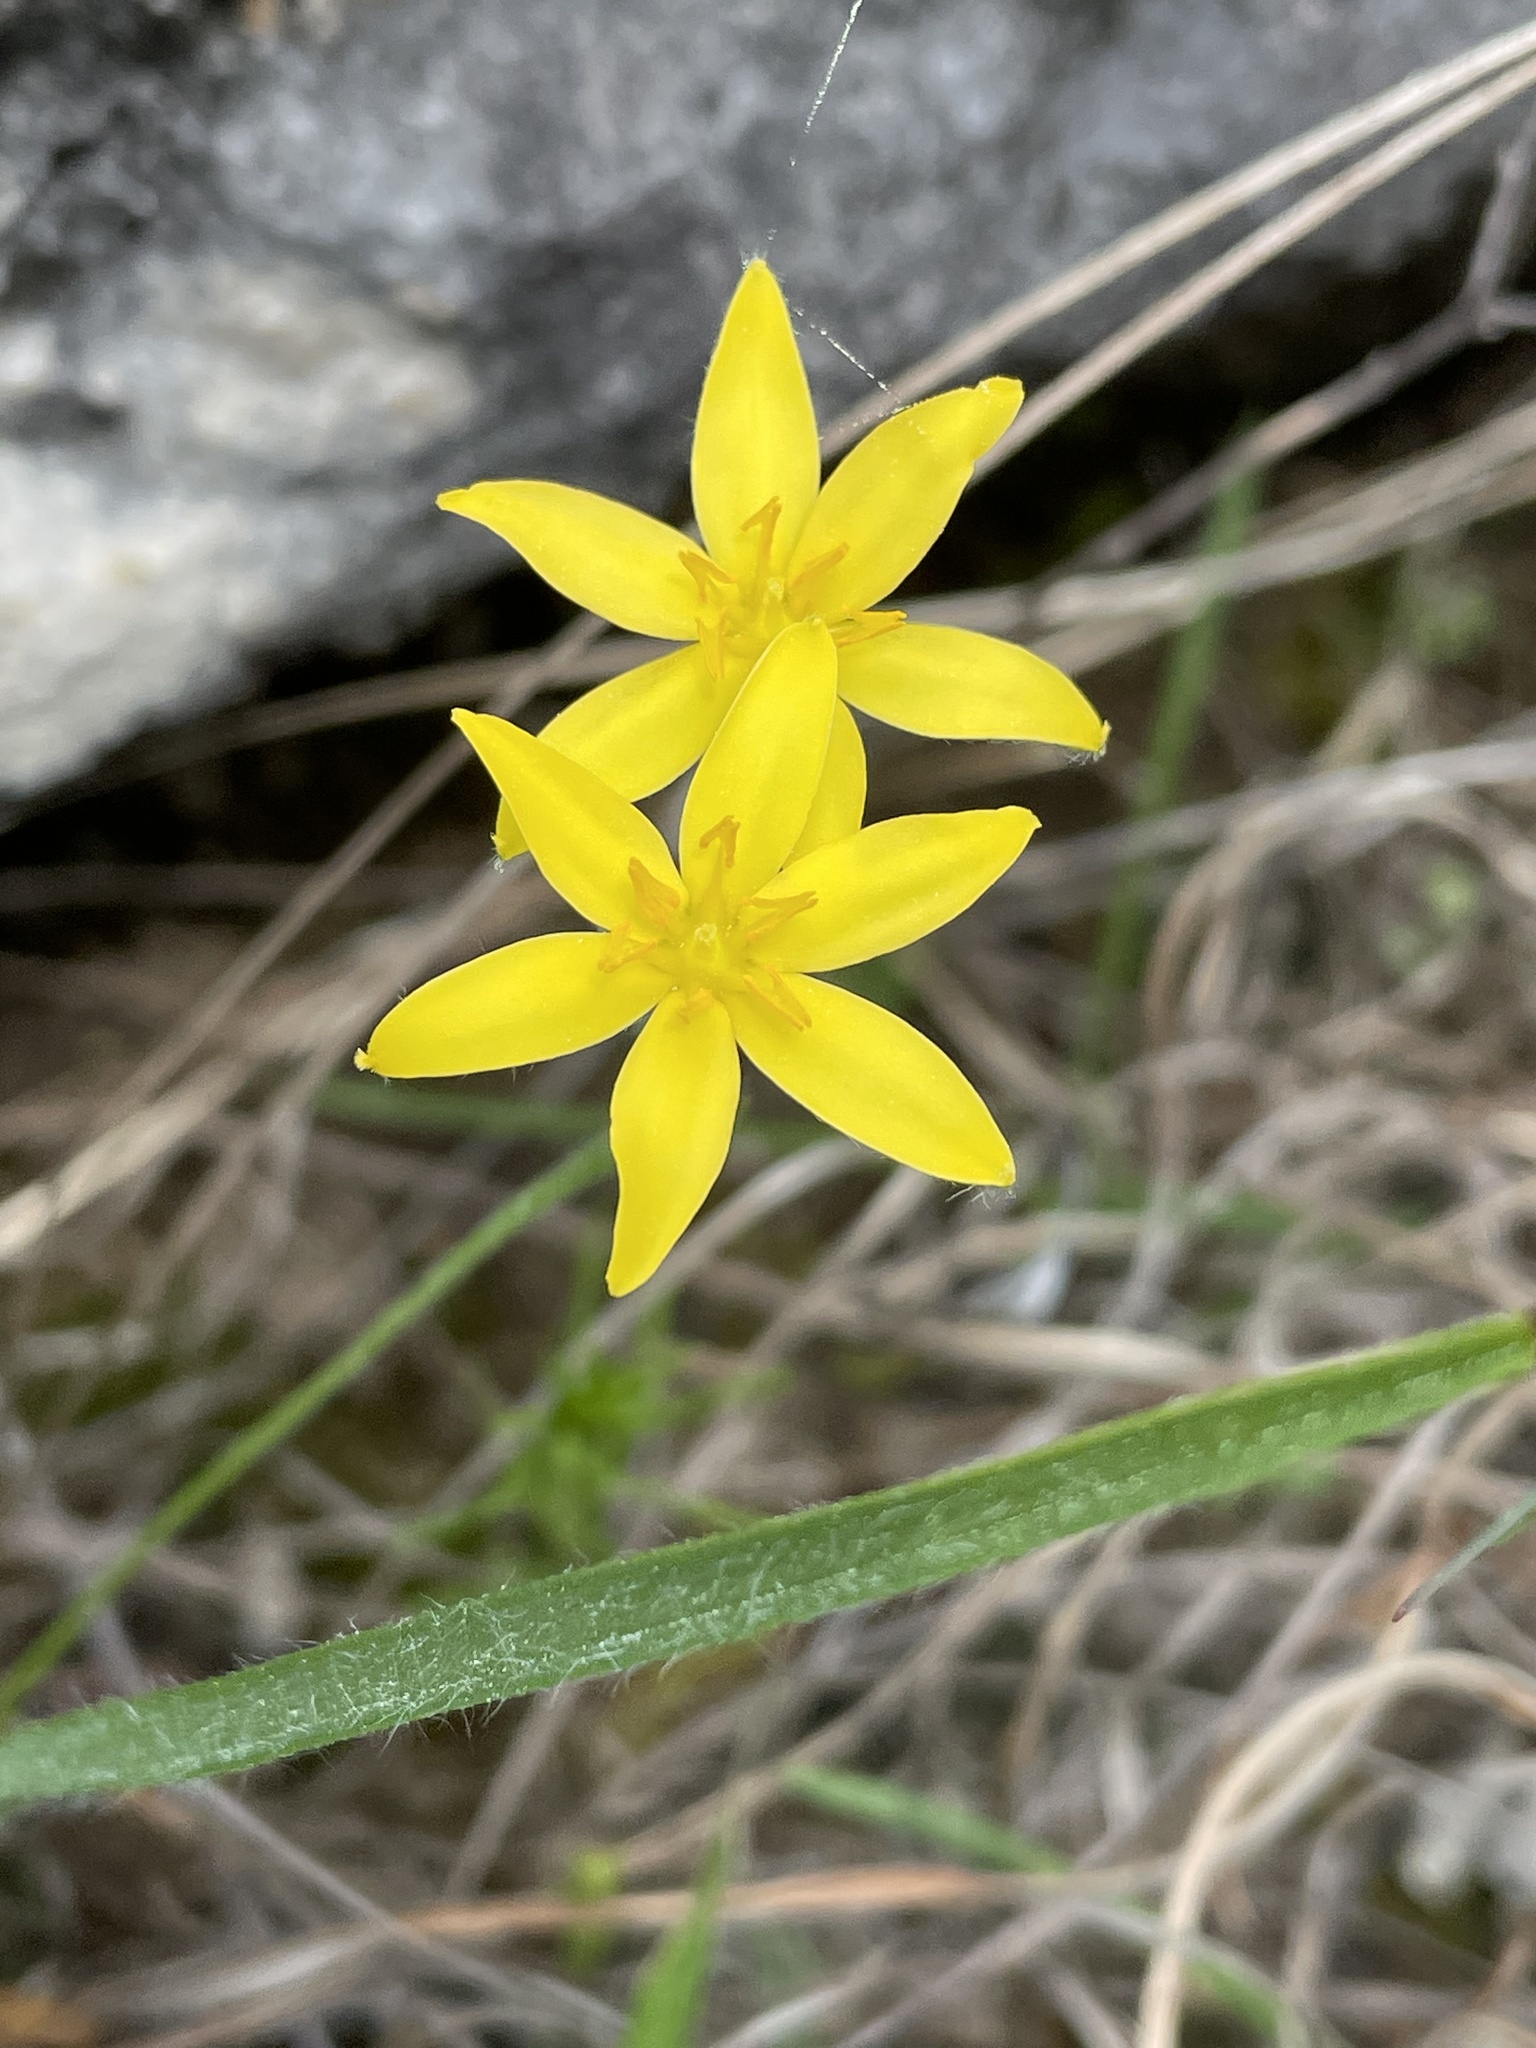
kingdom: Plantae
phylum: Tracheophyta
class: Liliopsida
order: Asparagales
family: Hypoxidaceae
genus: Hypoxis
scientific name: Hypoxis hirsuta
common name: Common goldstar
